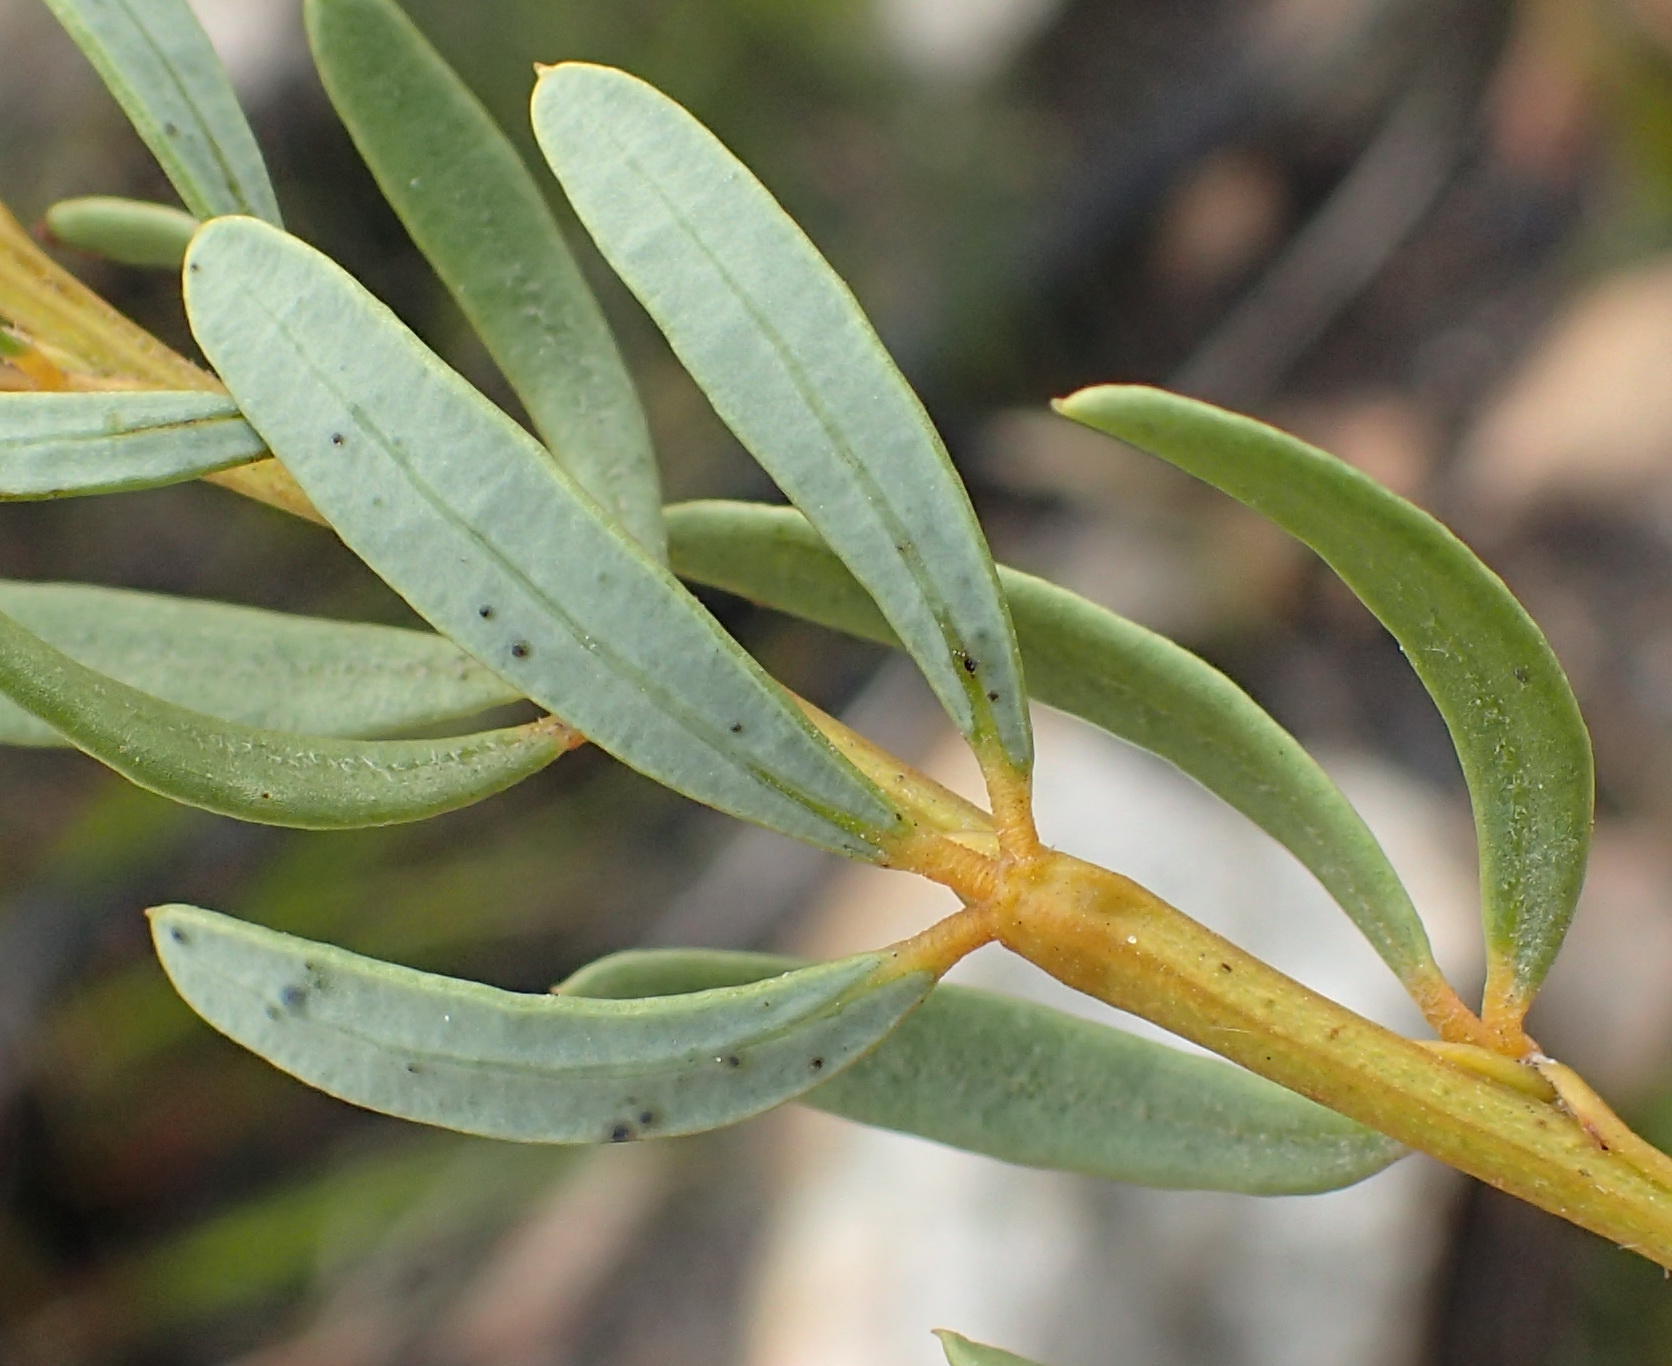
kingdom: Plantae
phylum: Tracheophyta
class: Magnoliopsida
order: Fabales
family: Fabaceae
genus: Cyclopia
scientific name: Cyclopia intermedia
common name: Mountain tea
